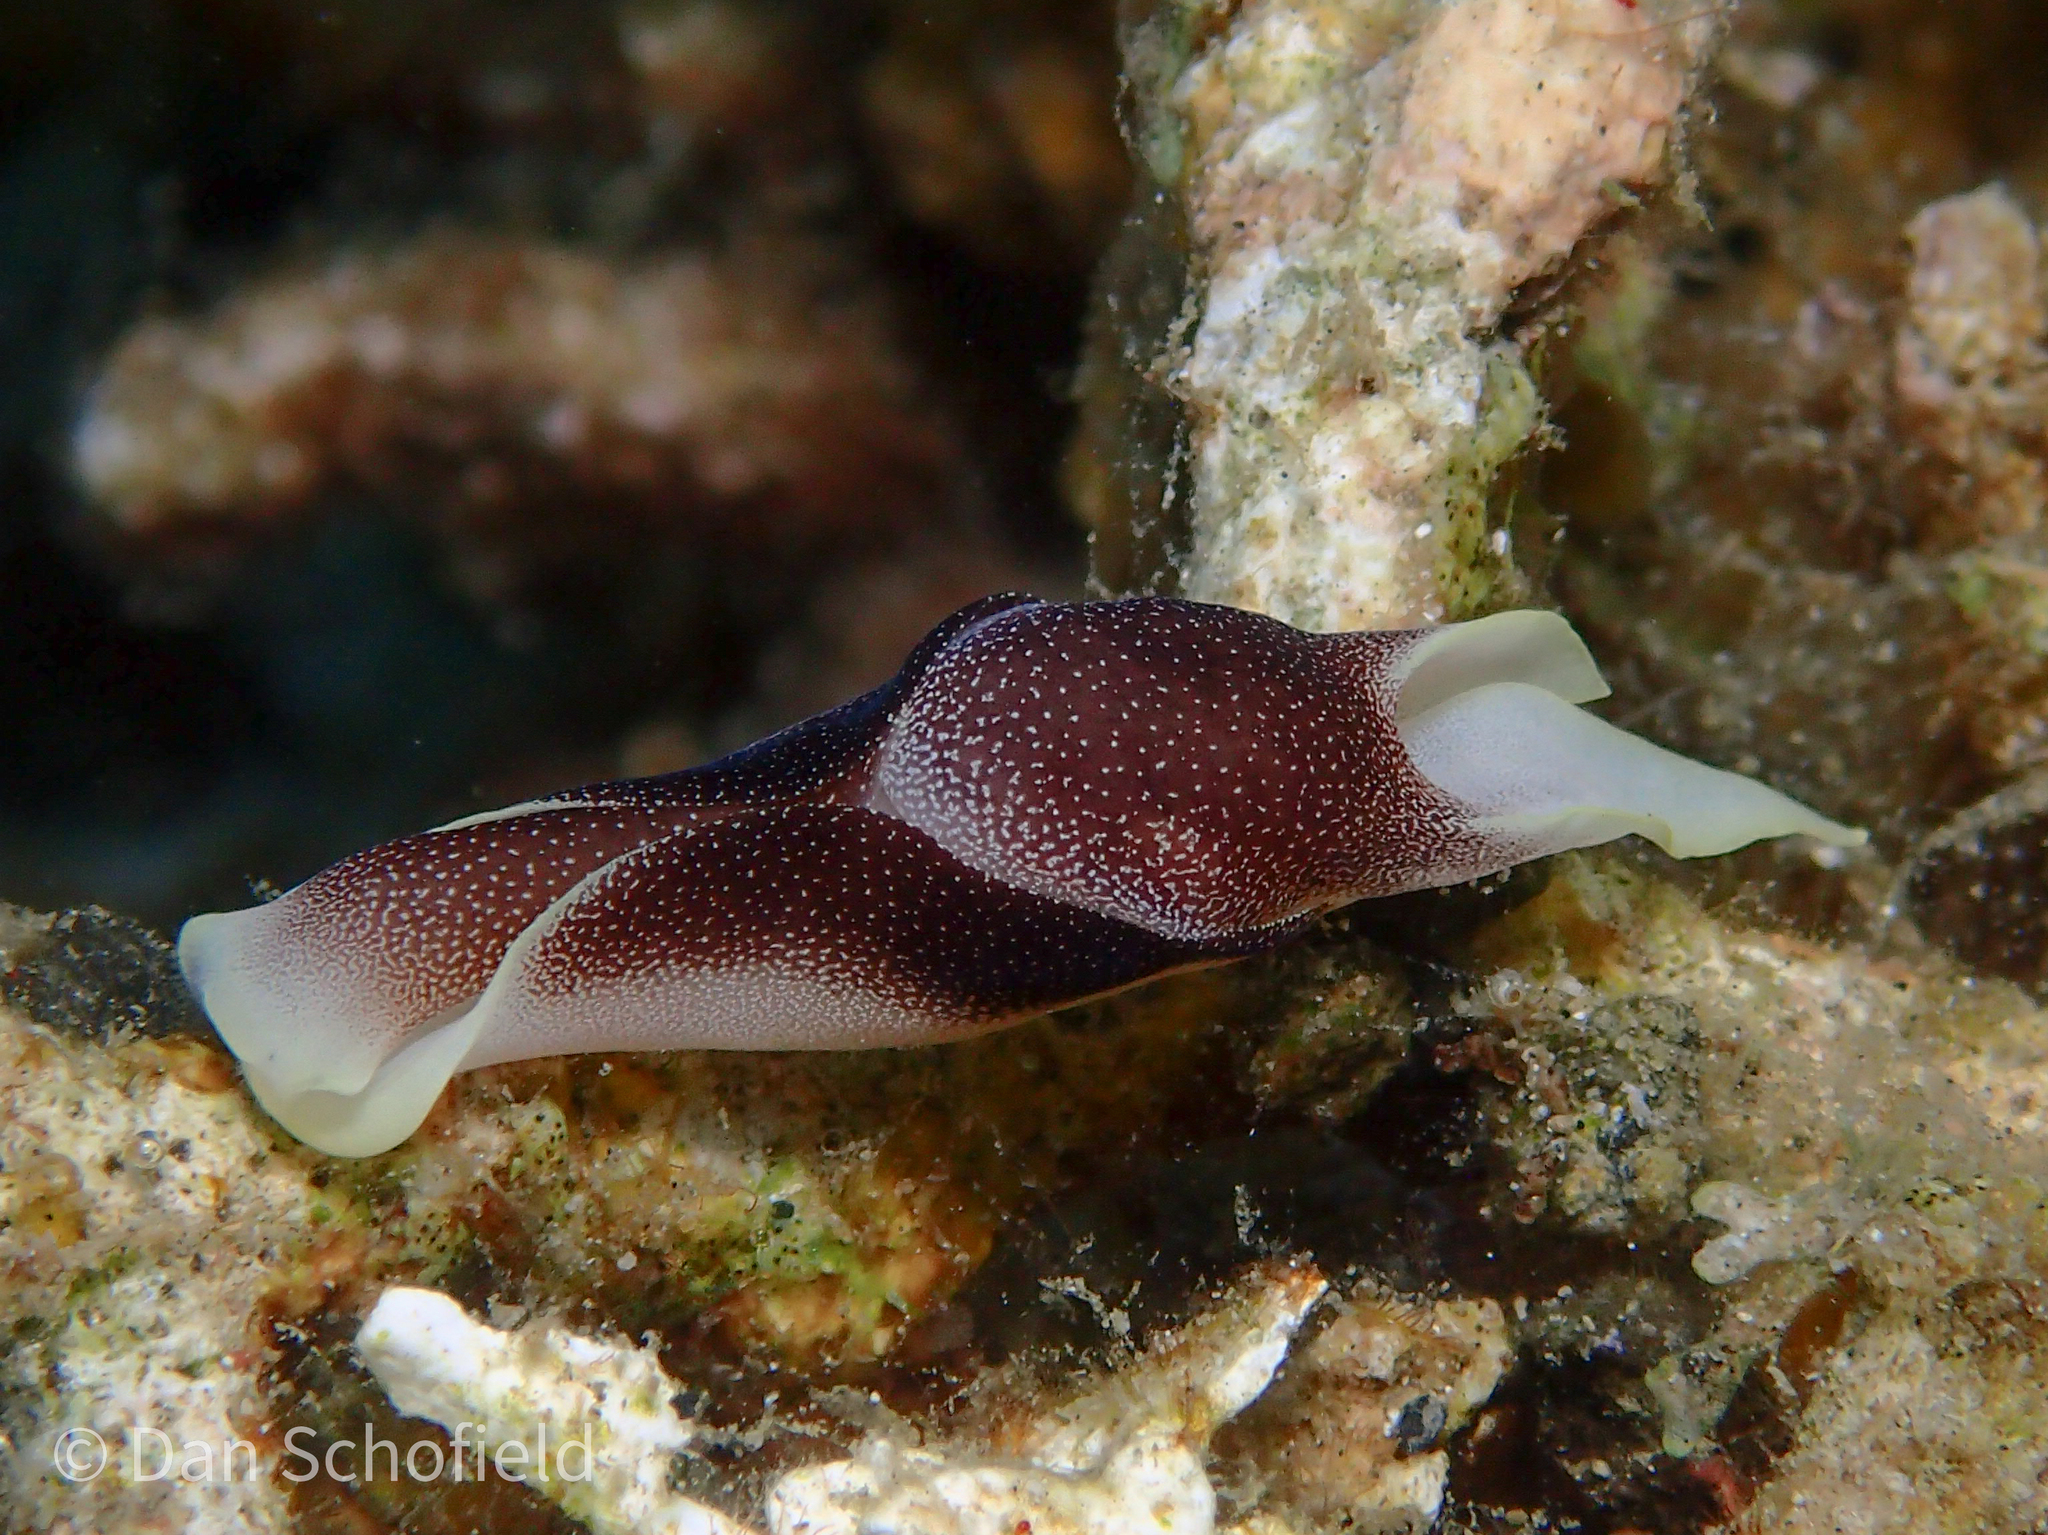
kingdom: Animalia
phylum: Mollusca
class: Gastropoda
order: Cephalaspidea
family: Aglajidae
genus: Chelidonura
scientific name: Chelidonura amoena
